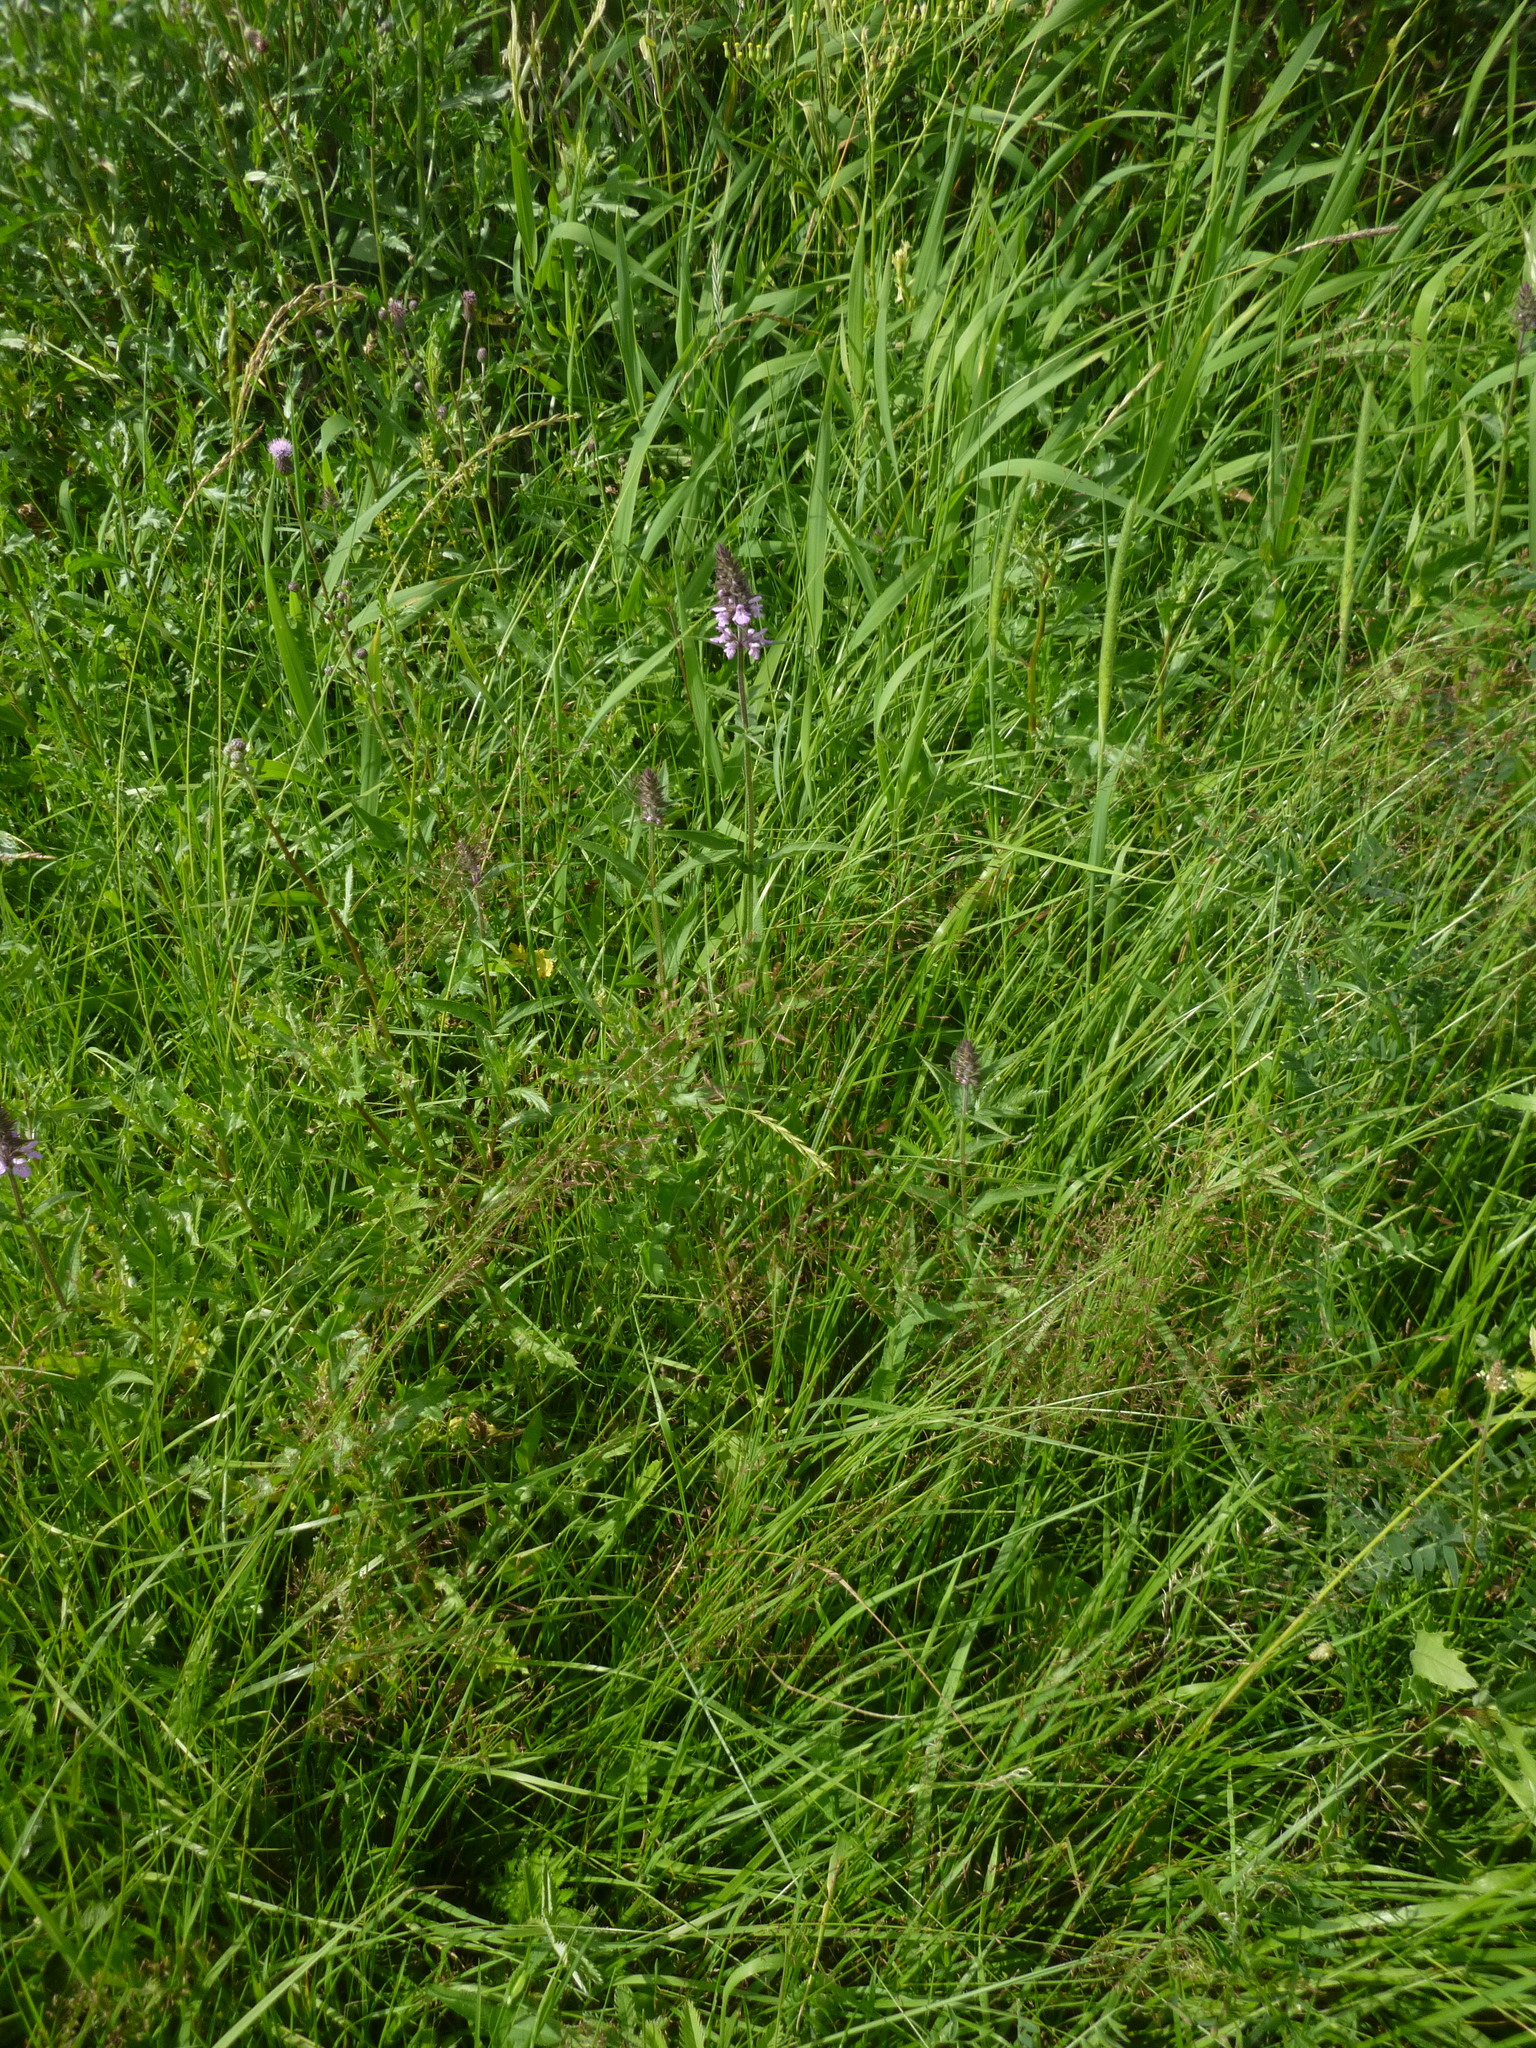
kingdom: Plantae
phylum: Tracheophyta
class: Magnoliopsida
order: Lamiales
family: Lamiaceae
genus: Stachys
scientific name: Stachys palustris
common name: Marsh woundwort
